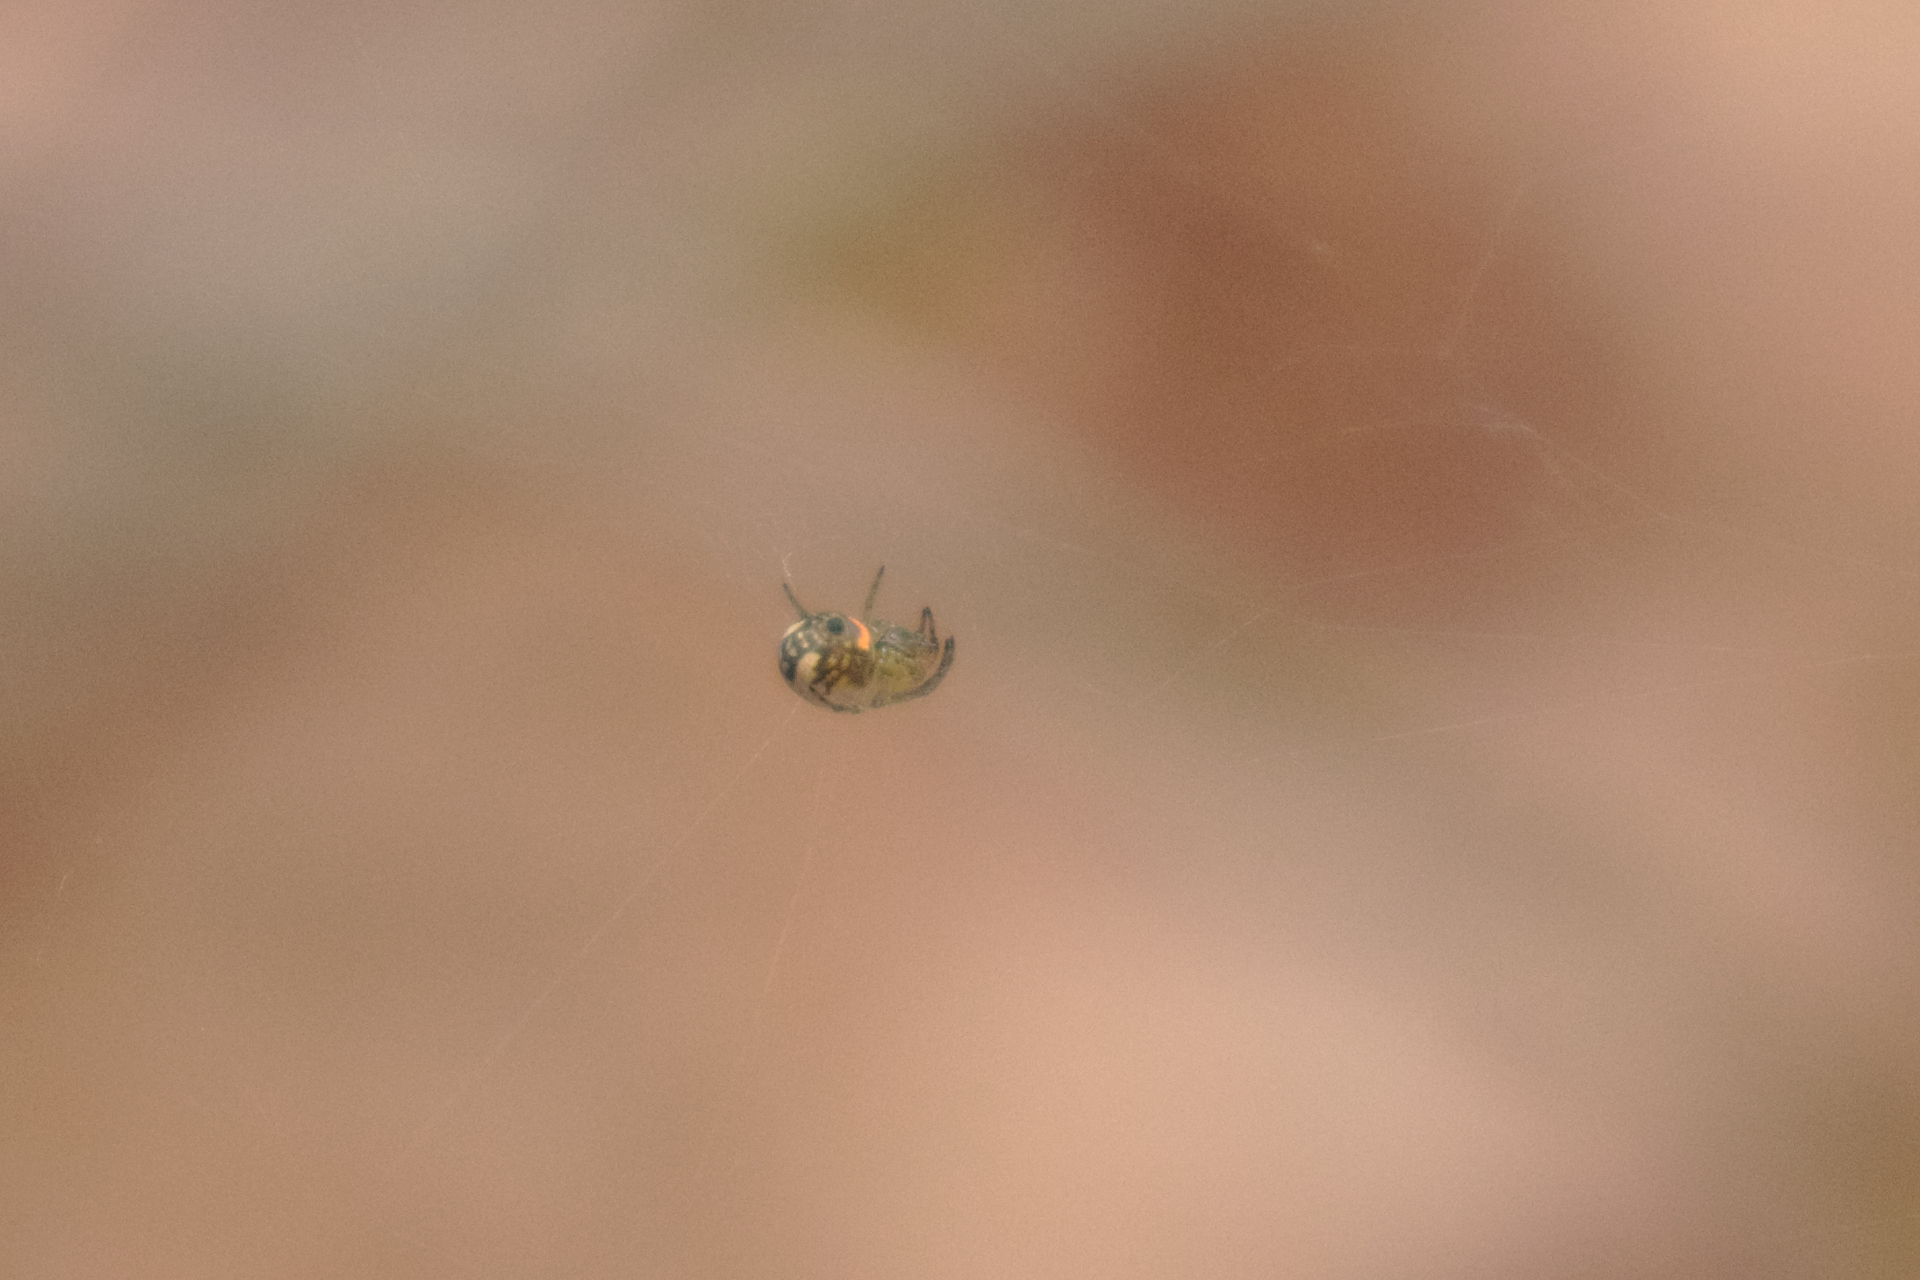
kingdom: Animalia
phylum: Arthropoda
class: Arachnida
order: Araneae
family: Tetragnathidae
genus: Leucauge
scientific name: Leucauge venusta
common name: Longjawed orb weavers
